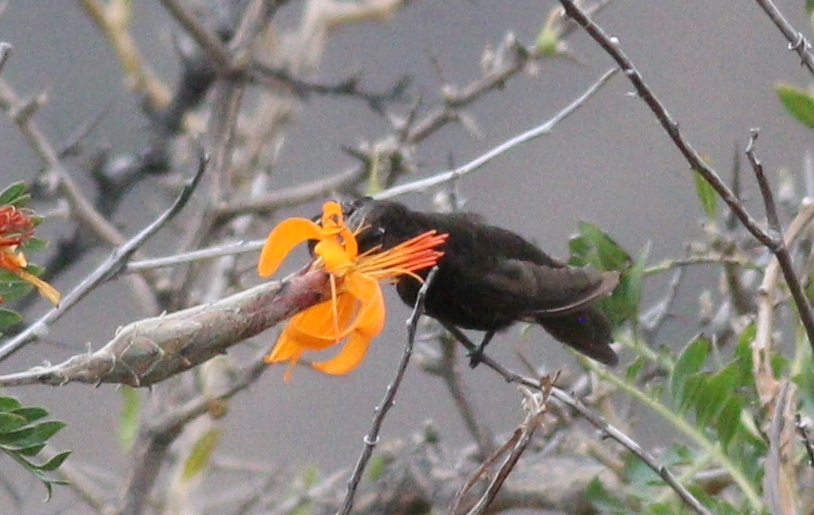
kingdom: Animalia
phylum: Chordata
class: Aves
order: Apodiformes
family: Trochilidae
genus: Metallura
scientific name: Metallura phoebe
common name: Black metaltail
